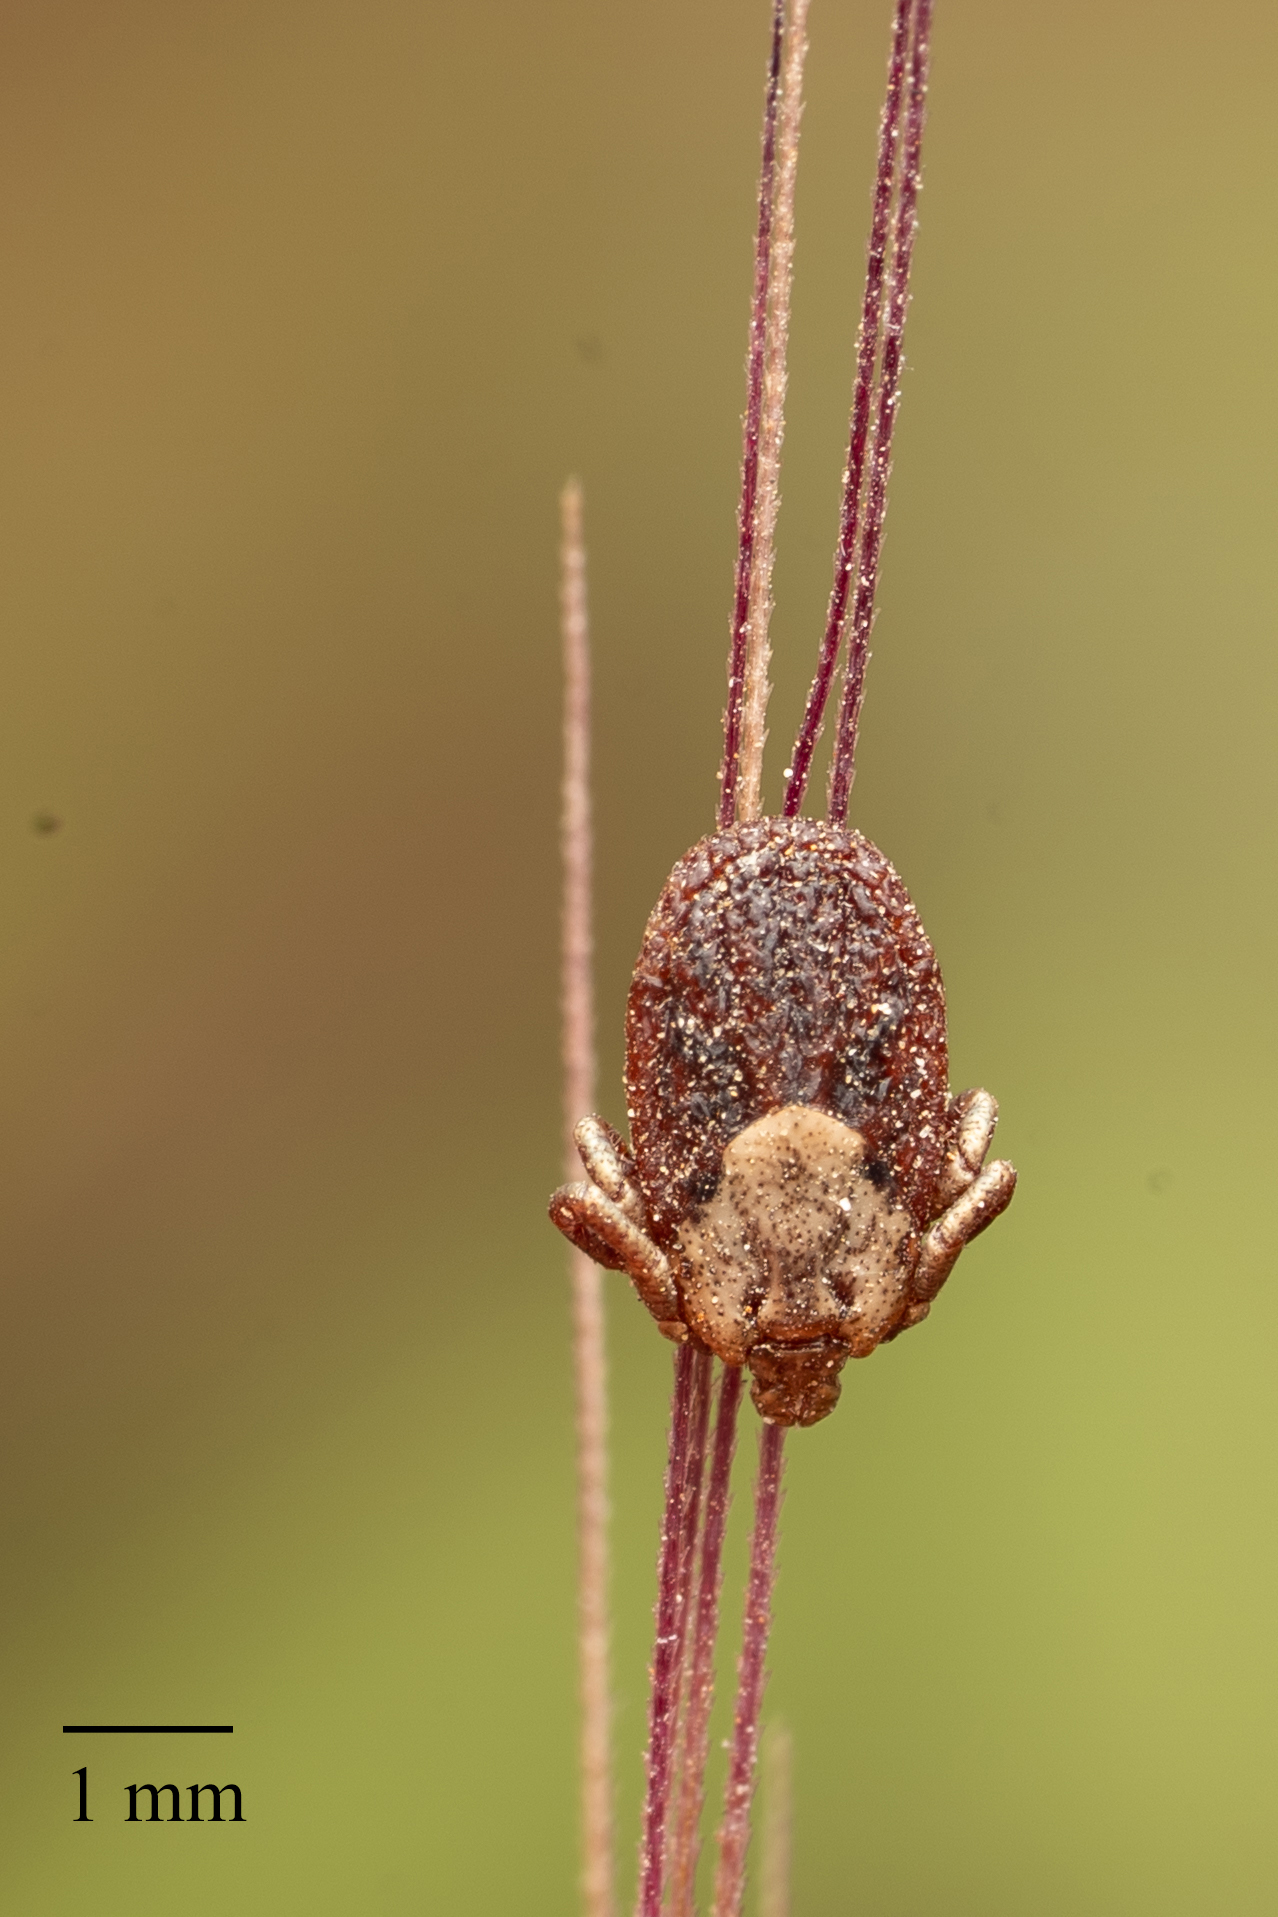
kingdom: Animalia
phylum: Arthropoda
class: Arachnida
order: Ixodida
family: Ixodidae
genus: Dermacentor
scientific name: Dermacentor occidentalis
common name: Net tick
